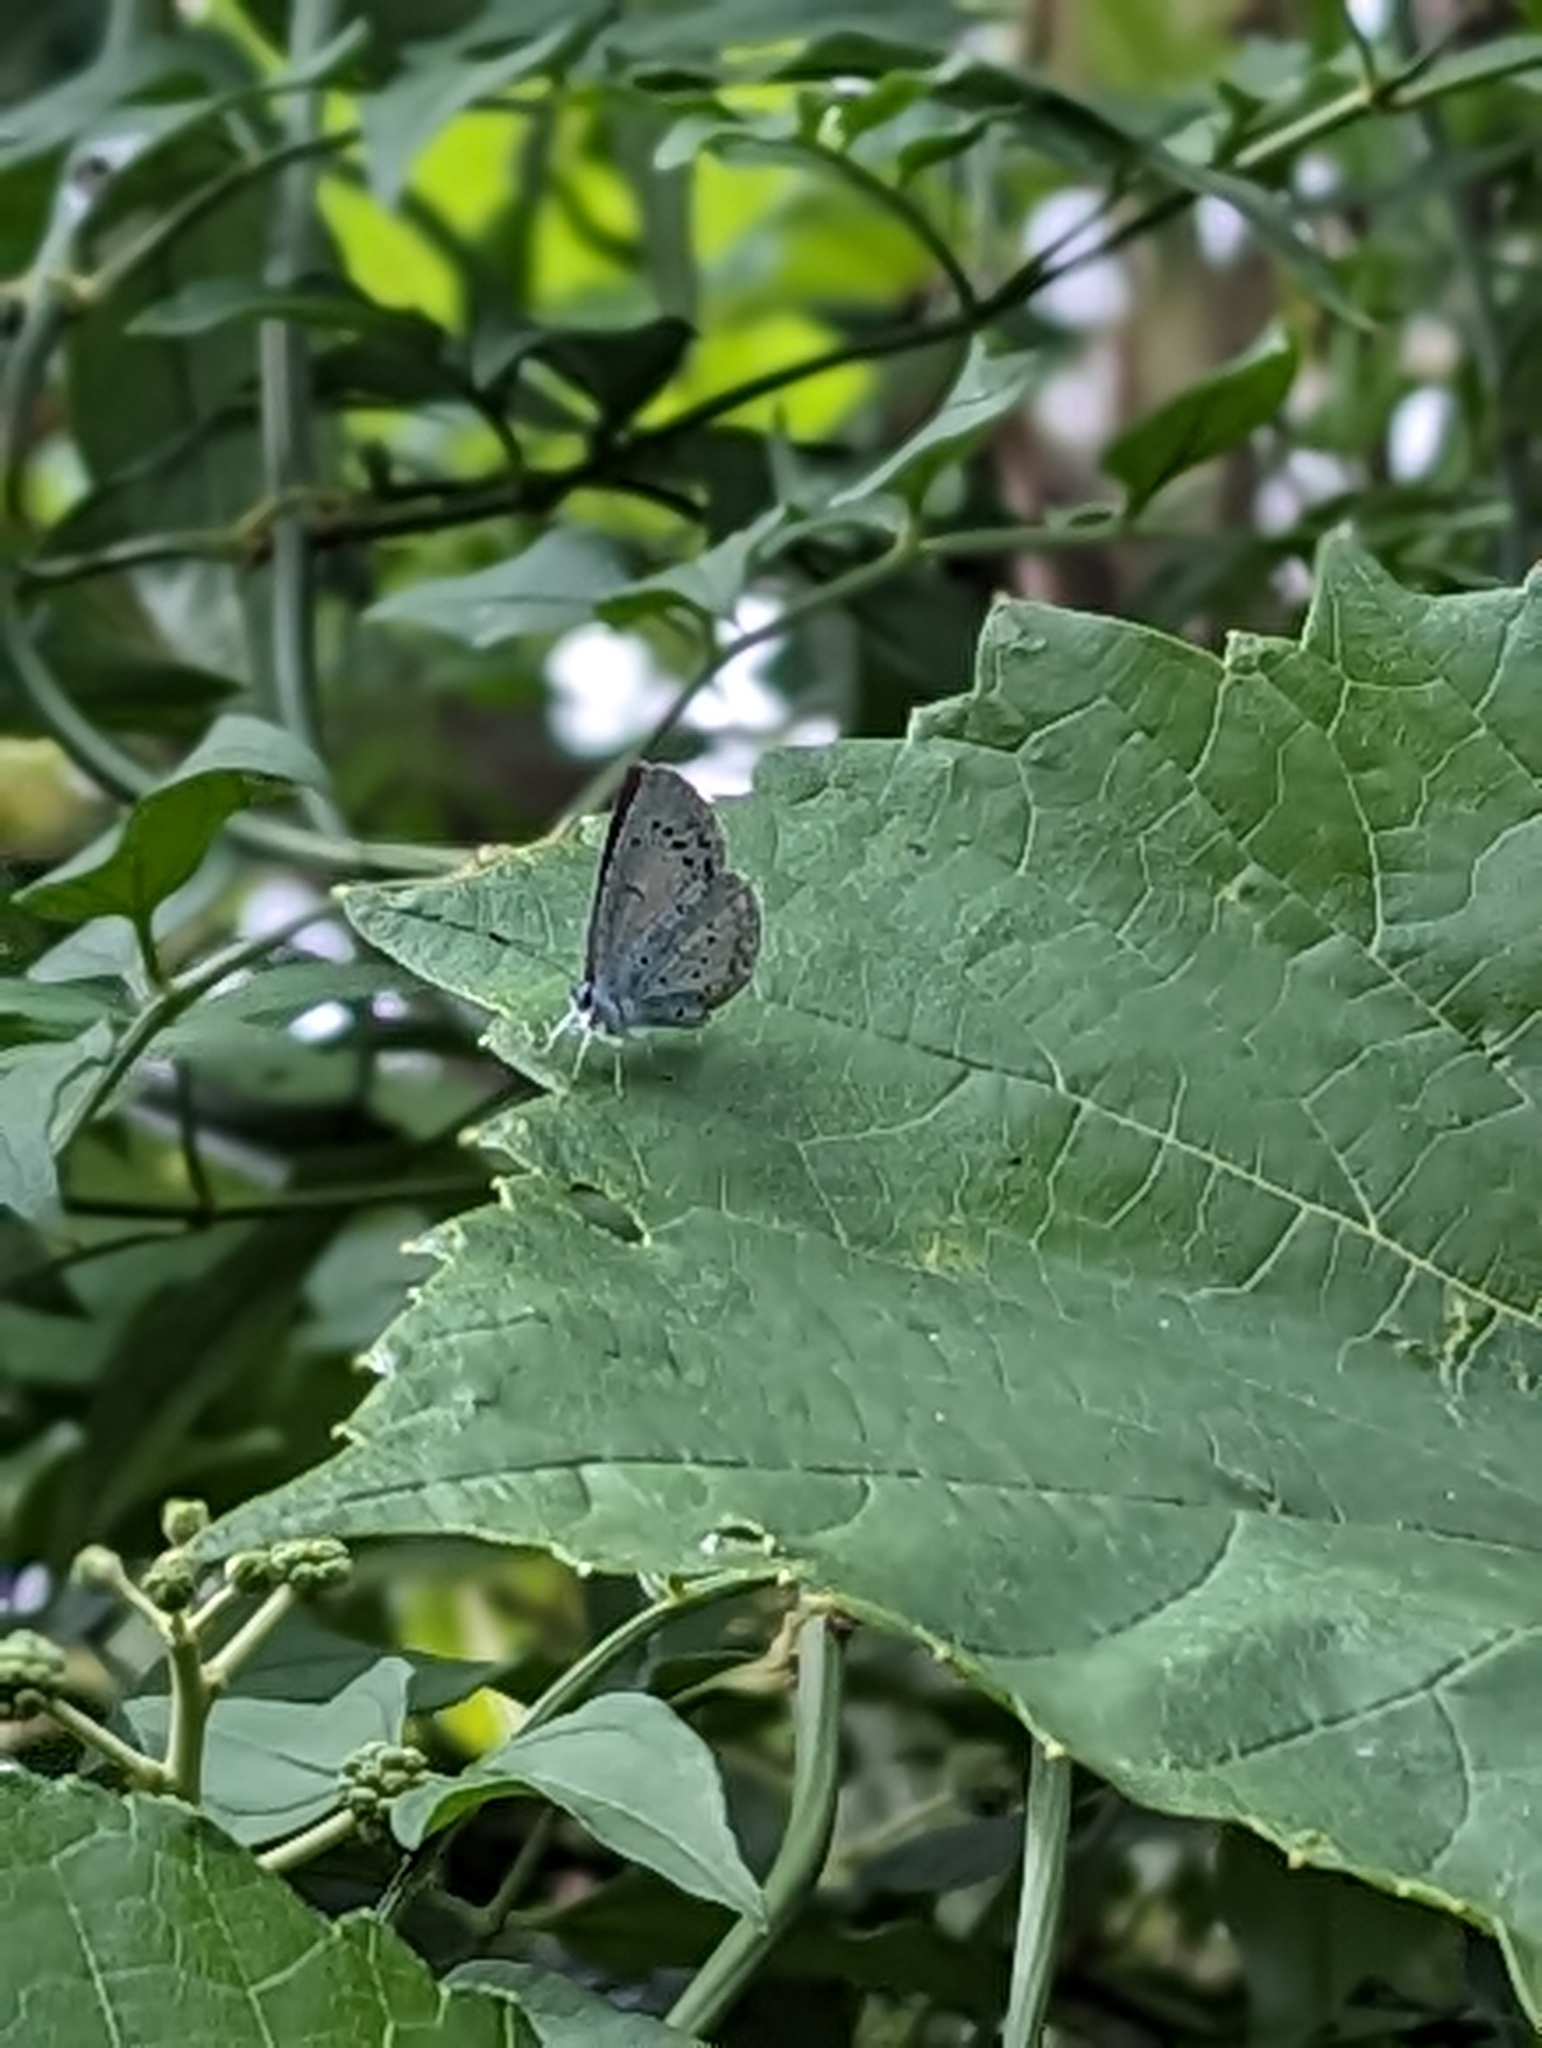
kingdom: Animalia
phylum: Arthropoda
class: Insecta
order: Lepidoptera
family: Lycaenidae
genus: Celastrina
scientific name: Celastrina argiolus
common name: Holly blue
